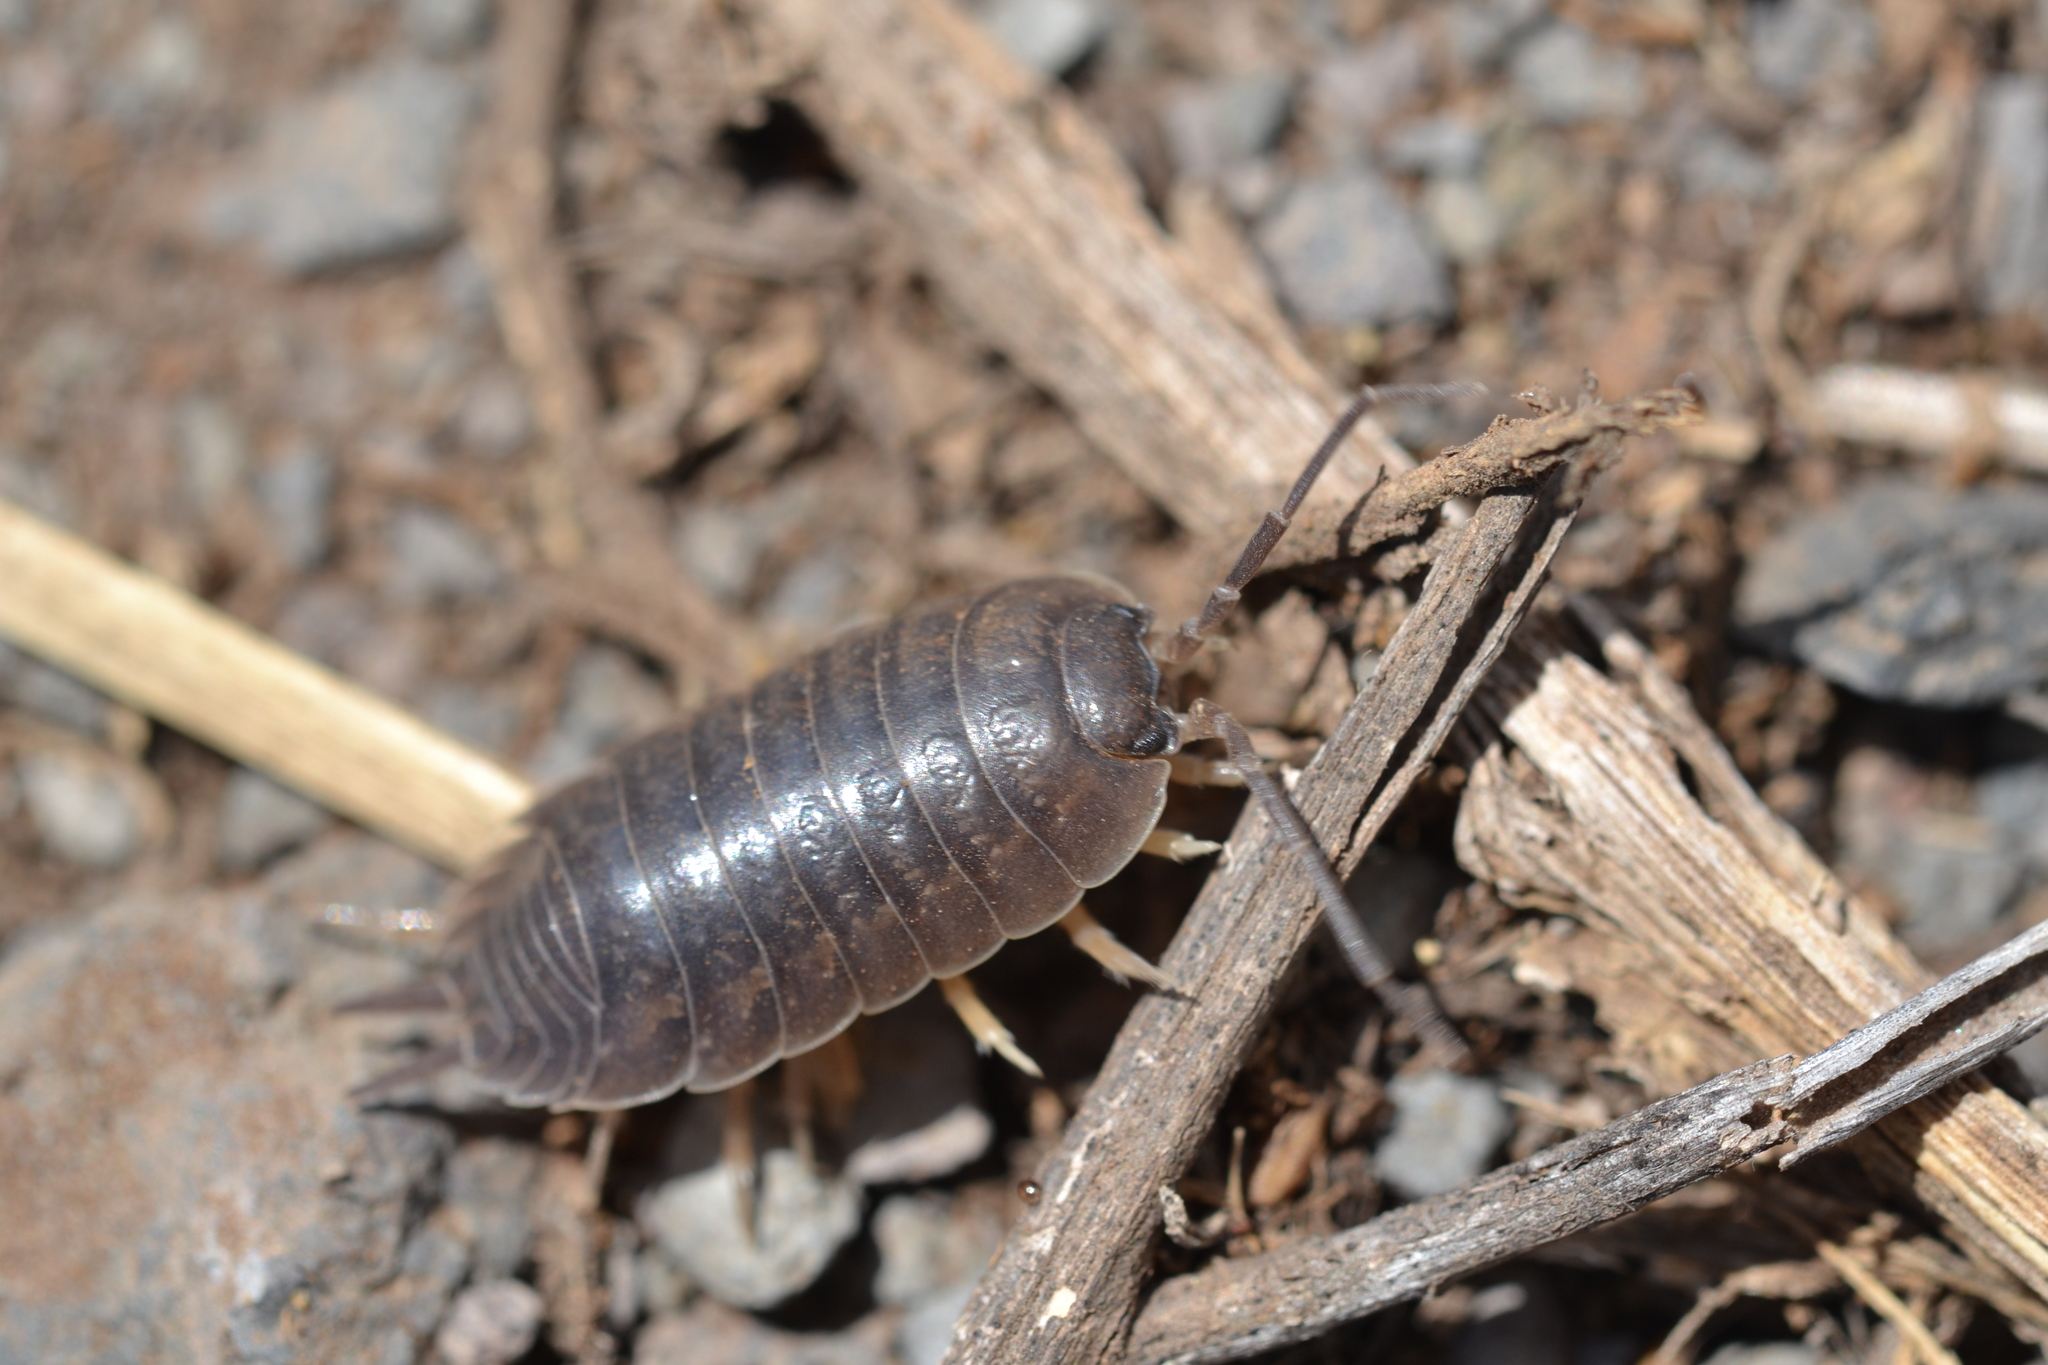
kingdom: Animalia
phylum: Arthropoda
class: Malacostraca
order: Isopoda
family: Porcellionidae
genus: Porcellio
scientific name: Porcellio laevis
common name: Swift woodlouse
